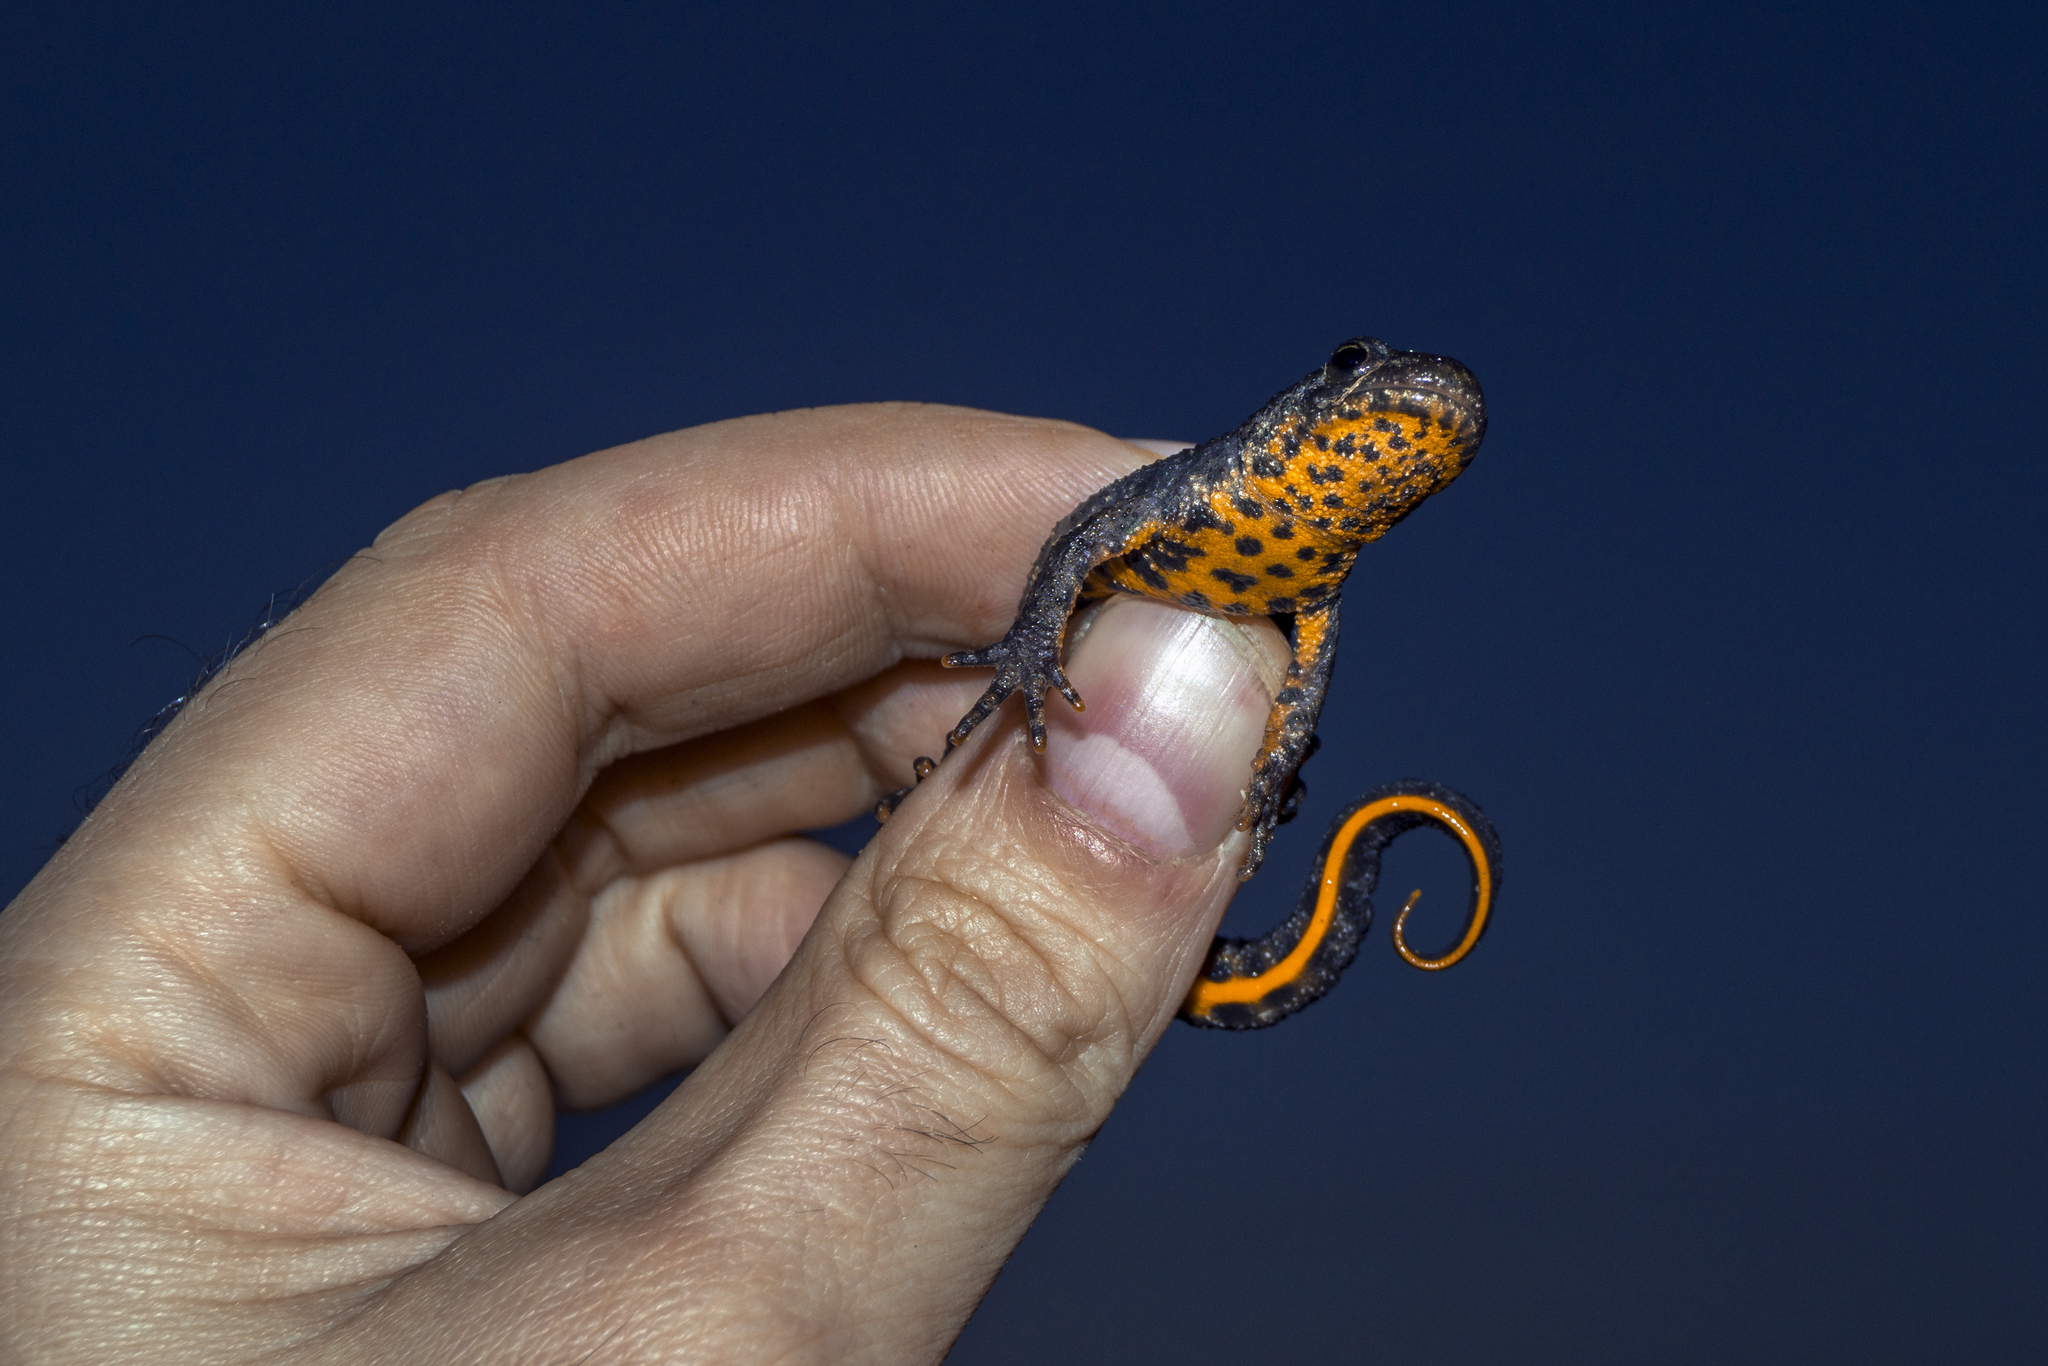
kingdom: Animalia
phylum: Chordata
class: Amphibia
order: Caudata
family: Salamandridae
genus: Triturus
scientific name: Triturus karelinii
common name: Southern crested newt
